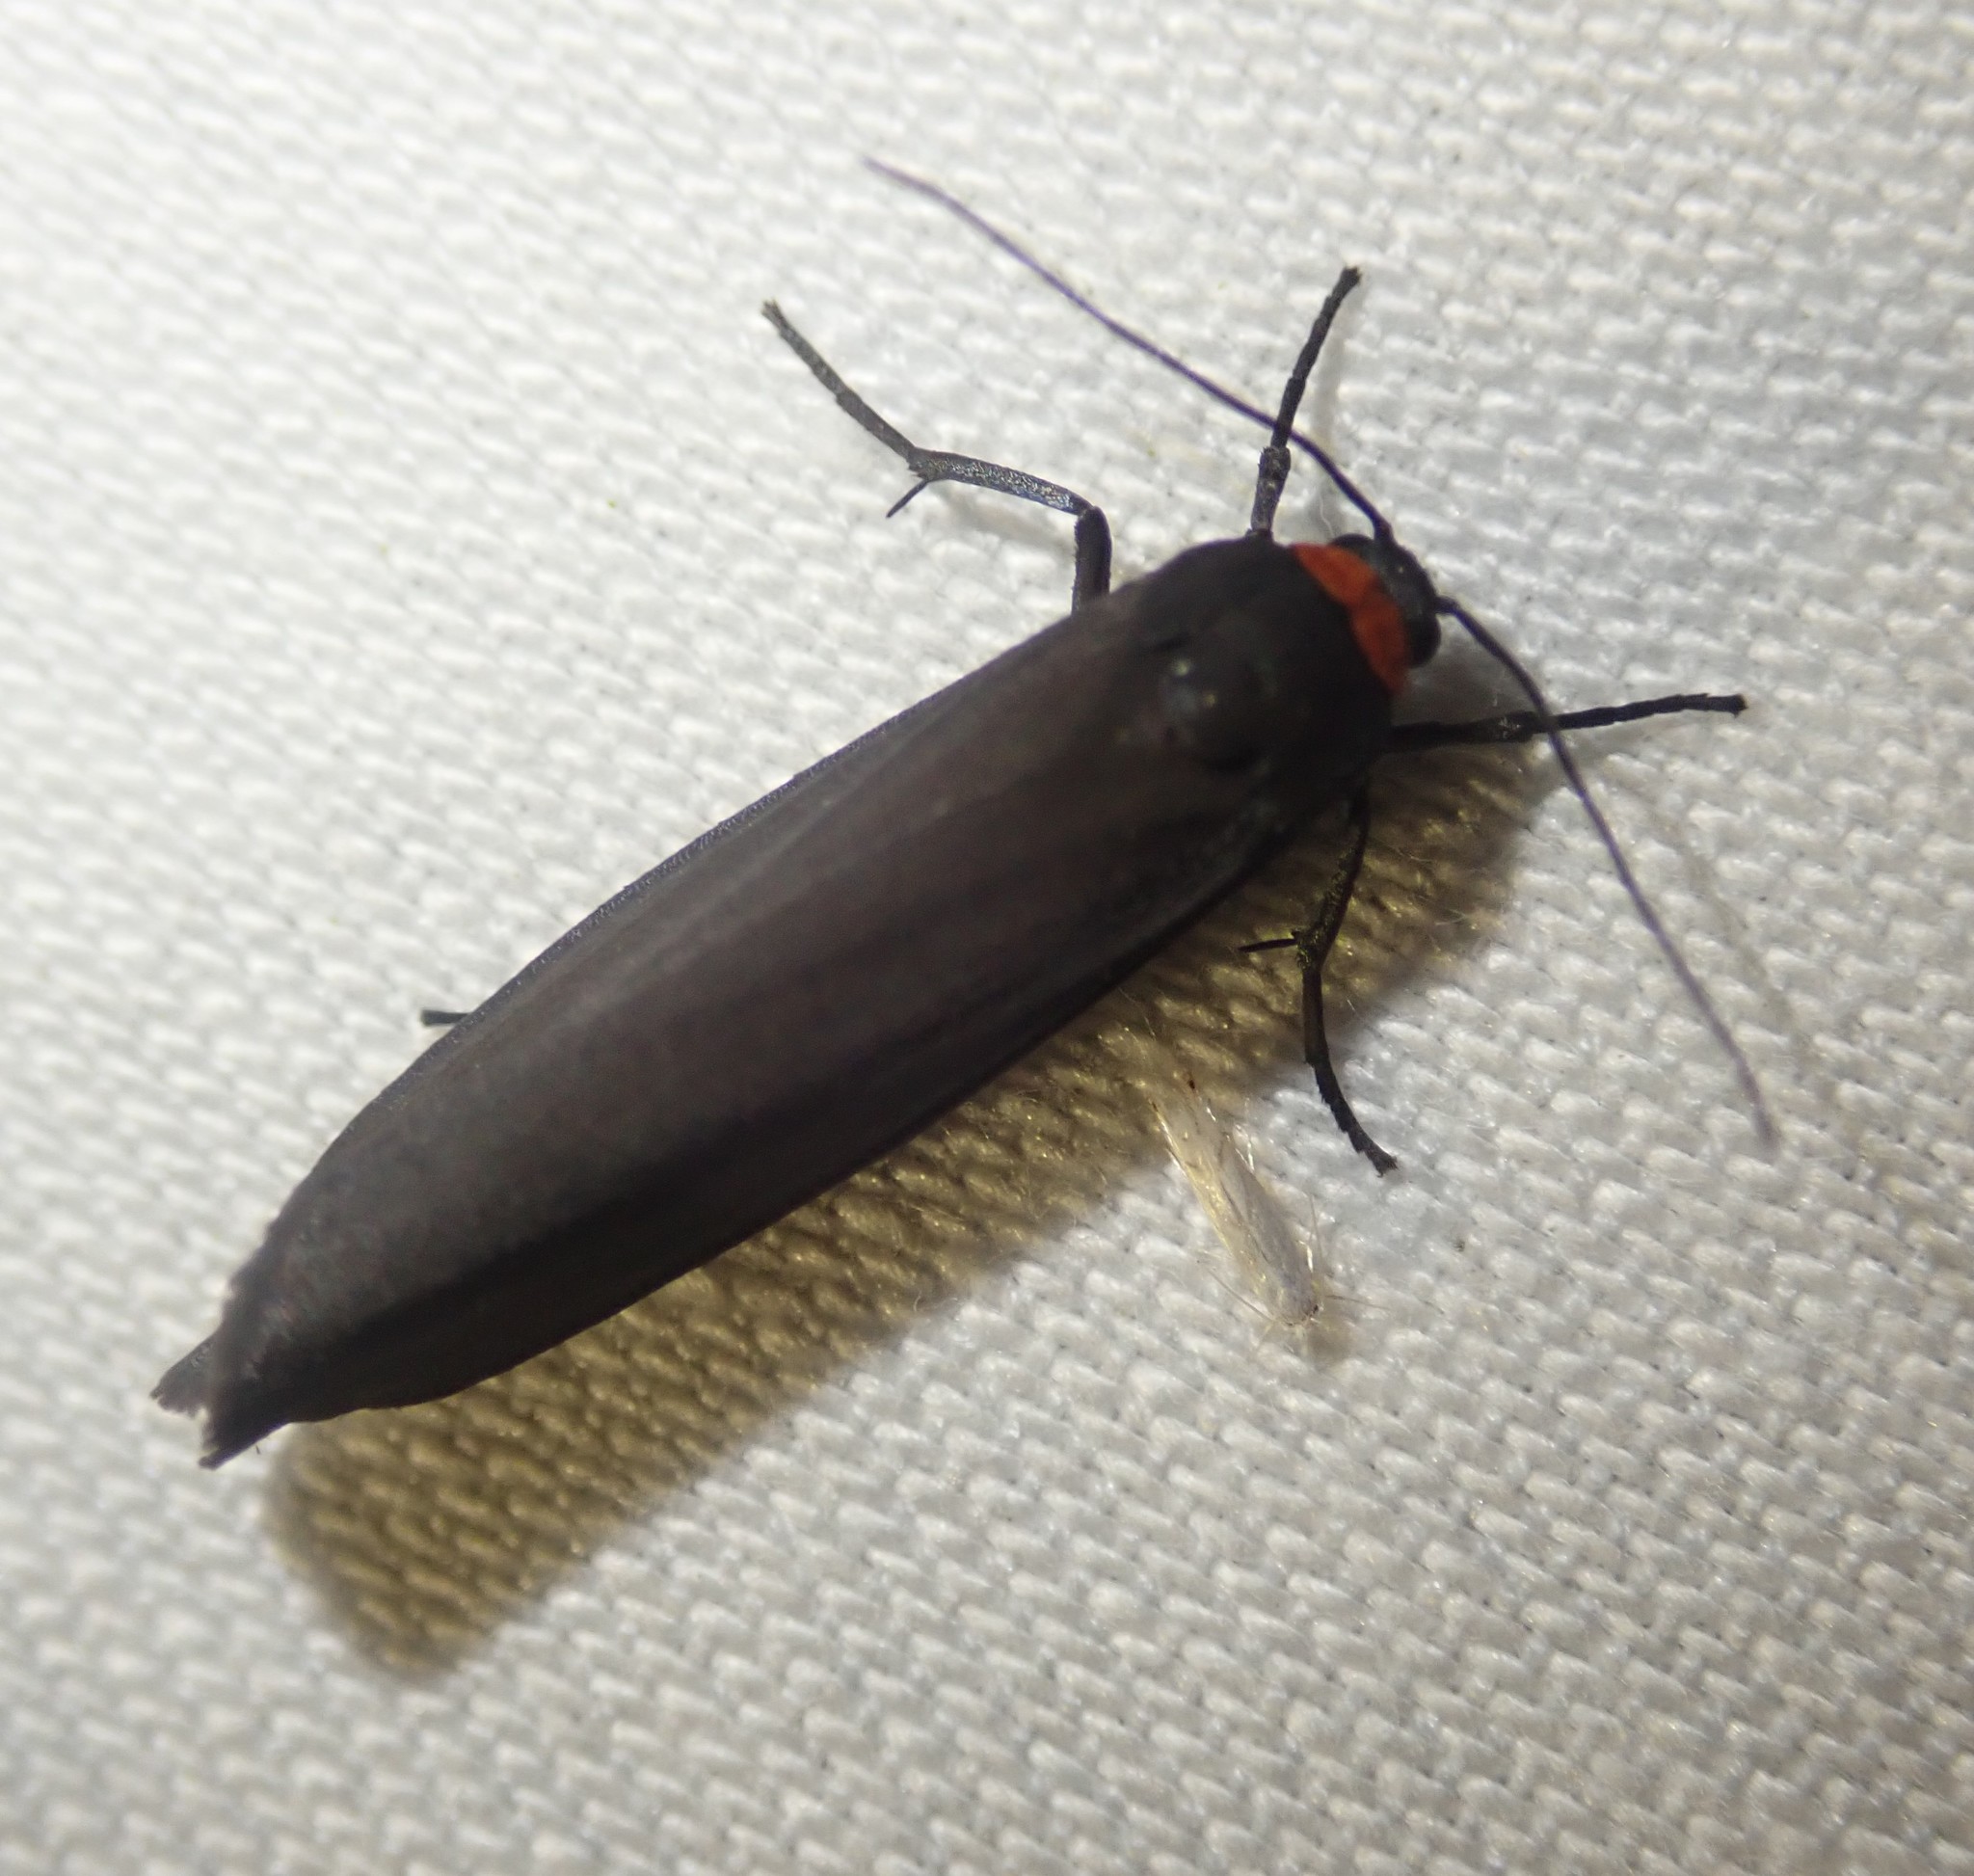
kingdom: Animalia
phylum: Arthropoda
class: Insecta
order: Lepidoptera
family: Erebidae
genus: Atolmis
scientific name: Atolmis rubricollis
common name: Red-necked footman
